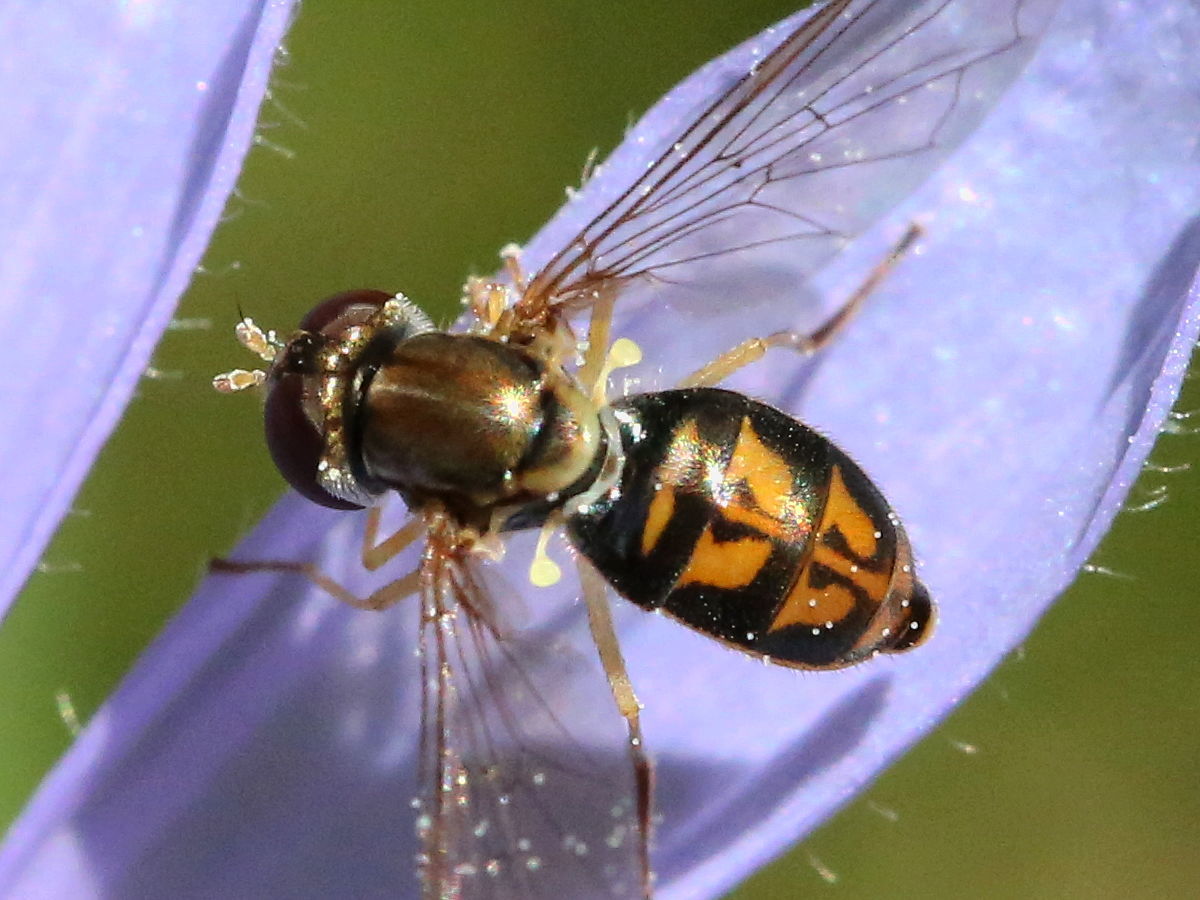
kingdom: Animalia
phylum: Arthropoda
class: Insecta
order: Diptera
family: Syrphidae
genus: Toxomerus
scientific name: Toxomerus marginatus
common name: Syrphid fly
